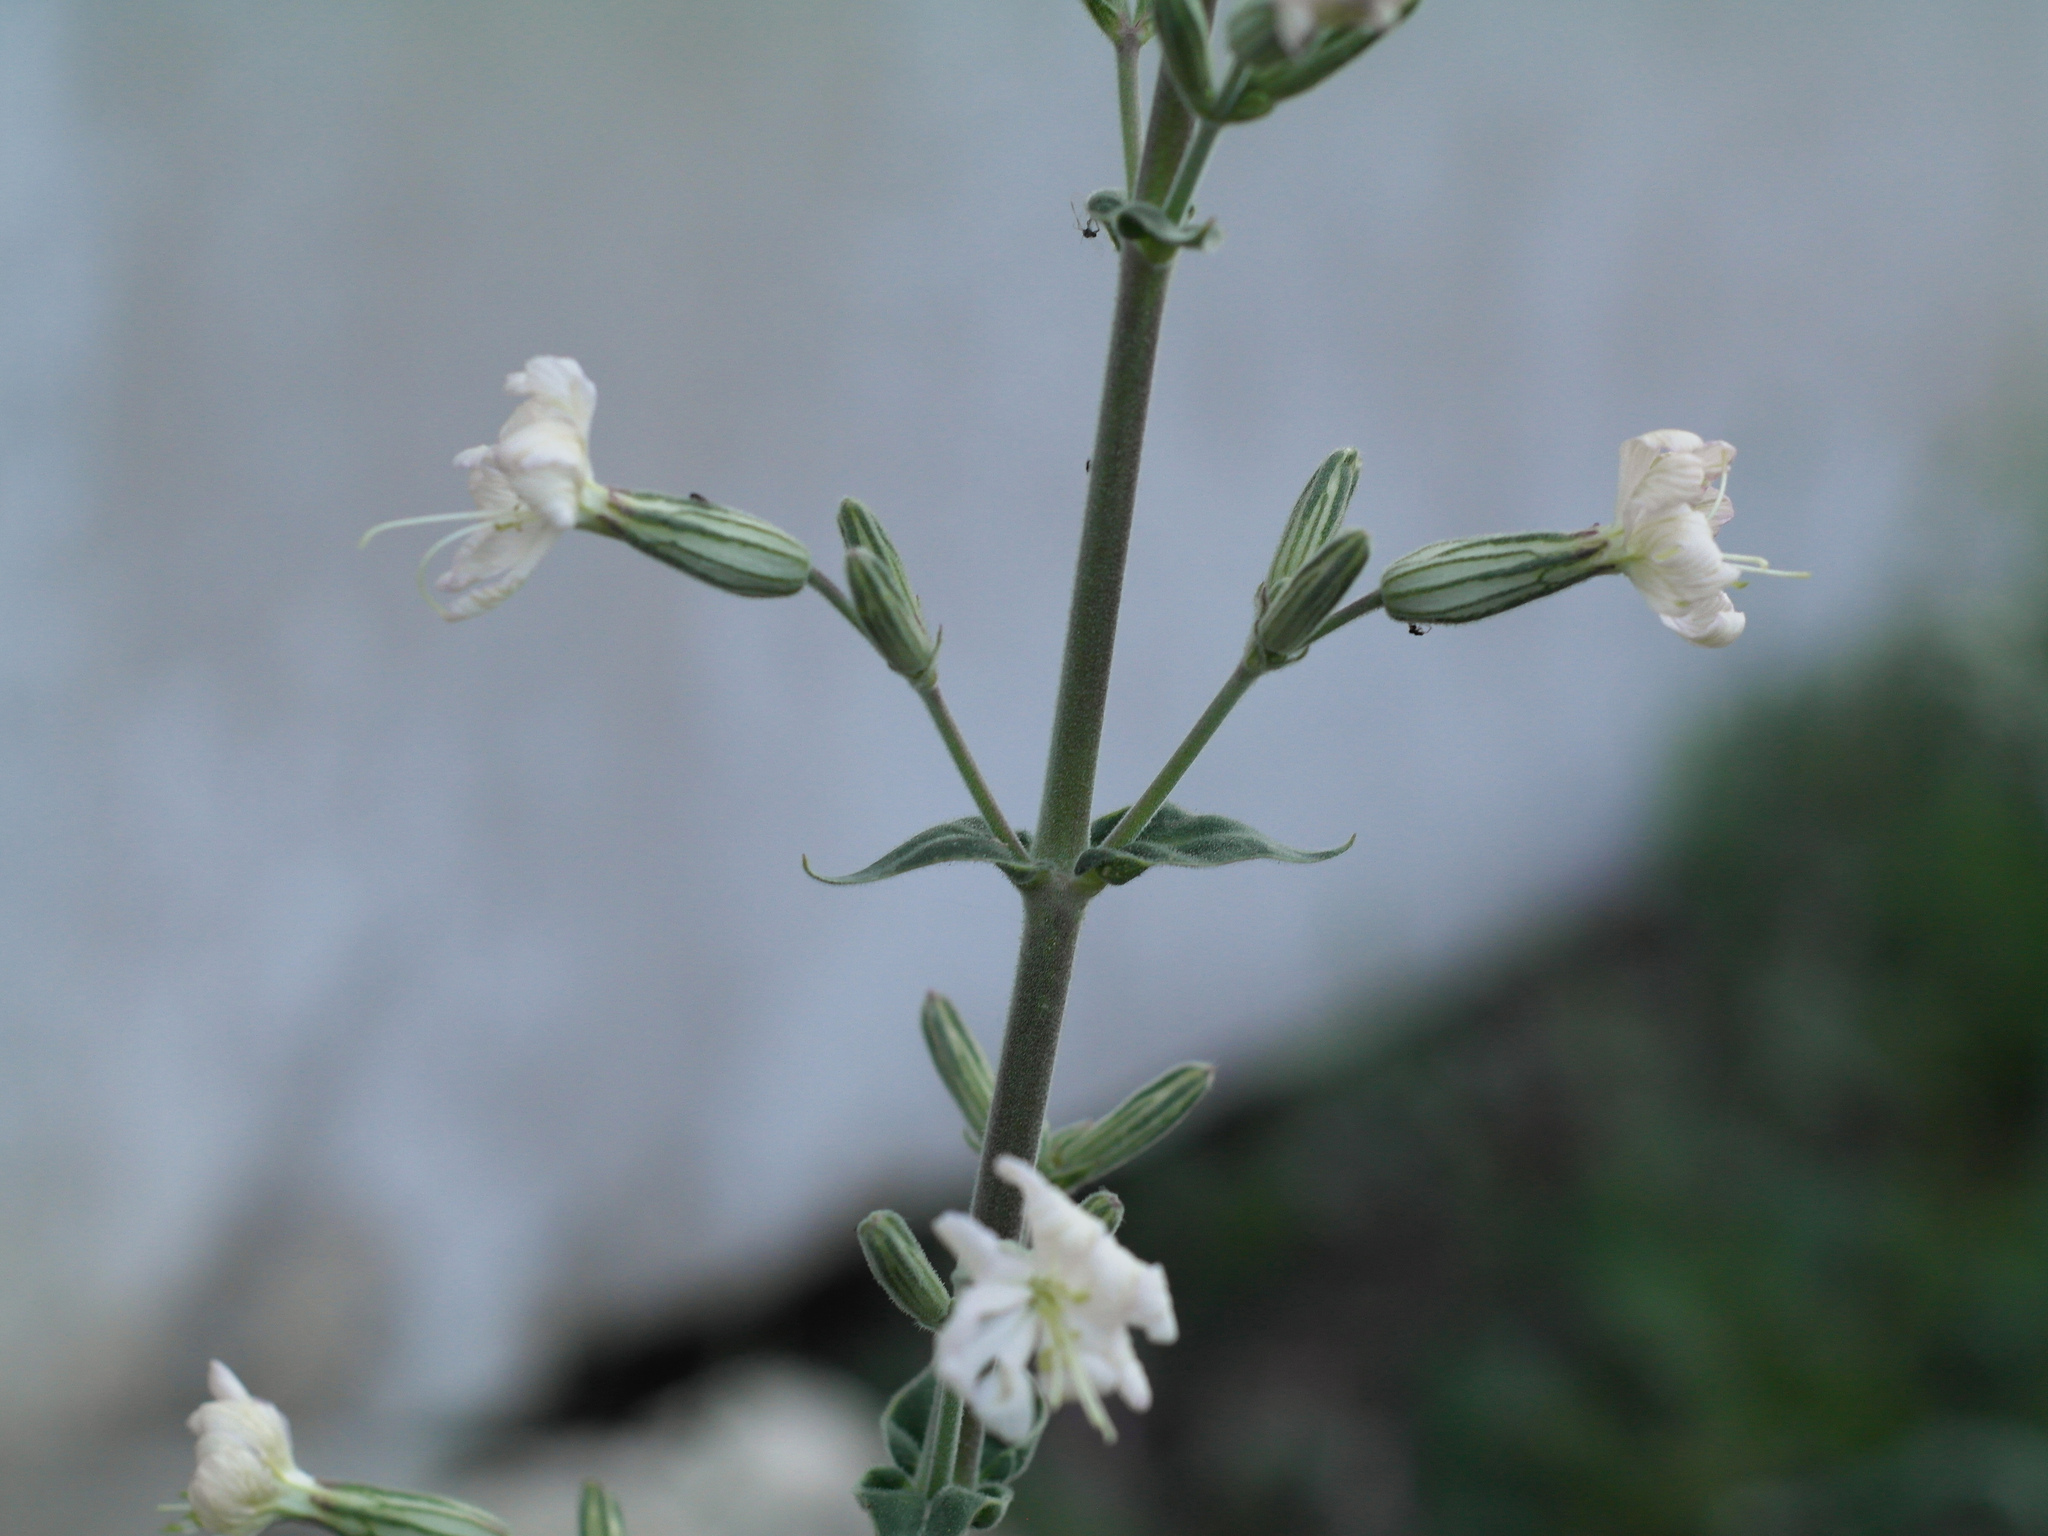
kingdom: Plantae
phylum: Tracheophyta
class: Magnoliopsida
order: Caryophyllales
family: Caryophyllaceae
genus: Silene
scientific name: Silene viscosa
